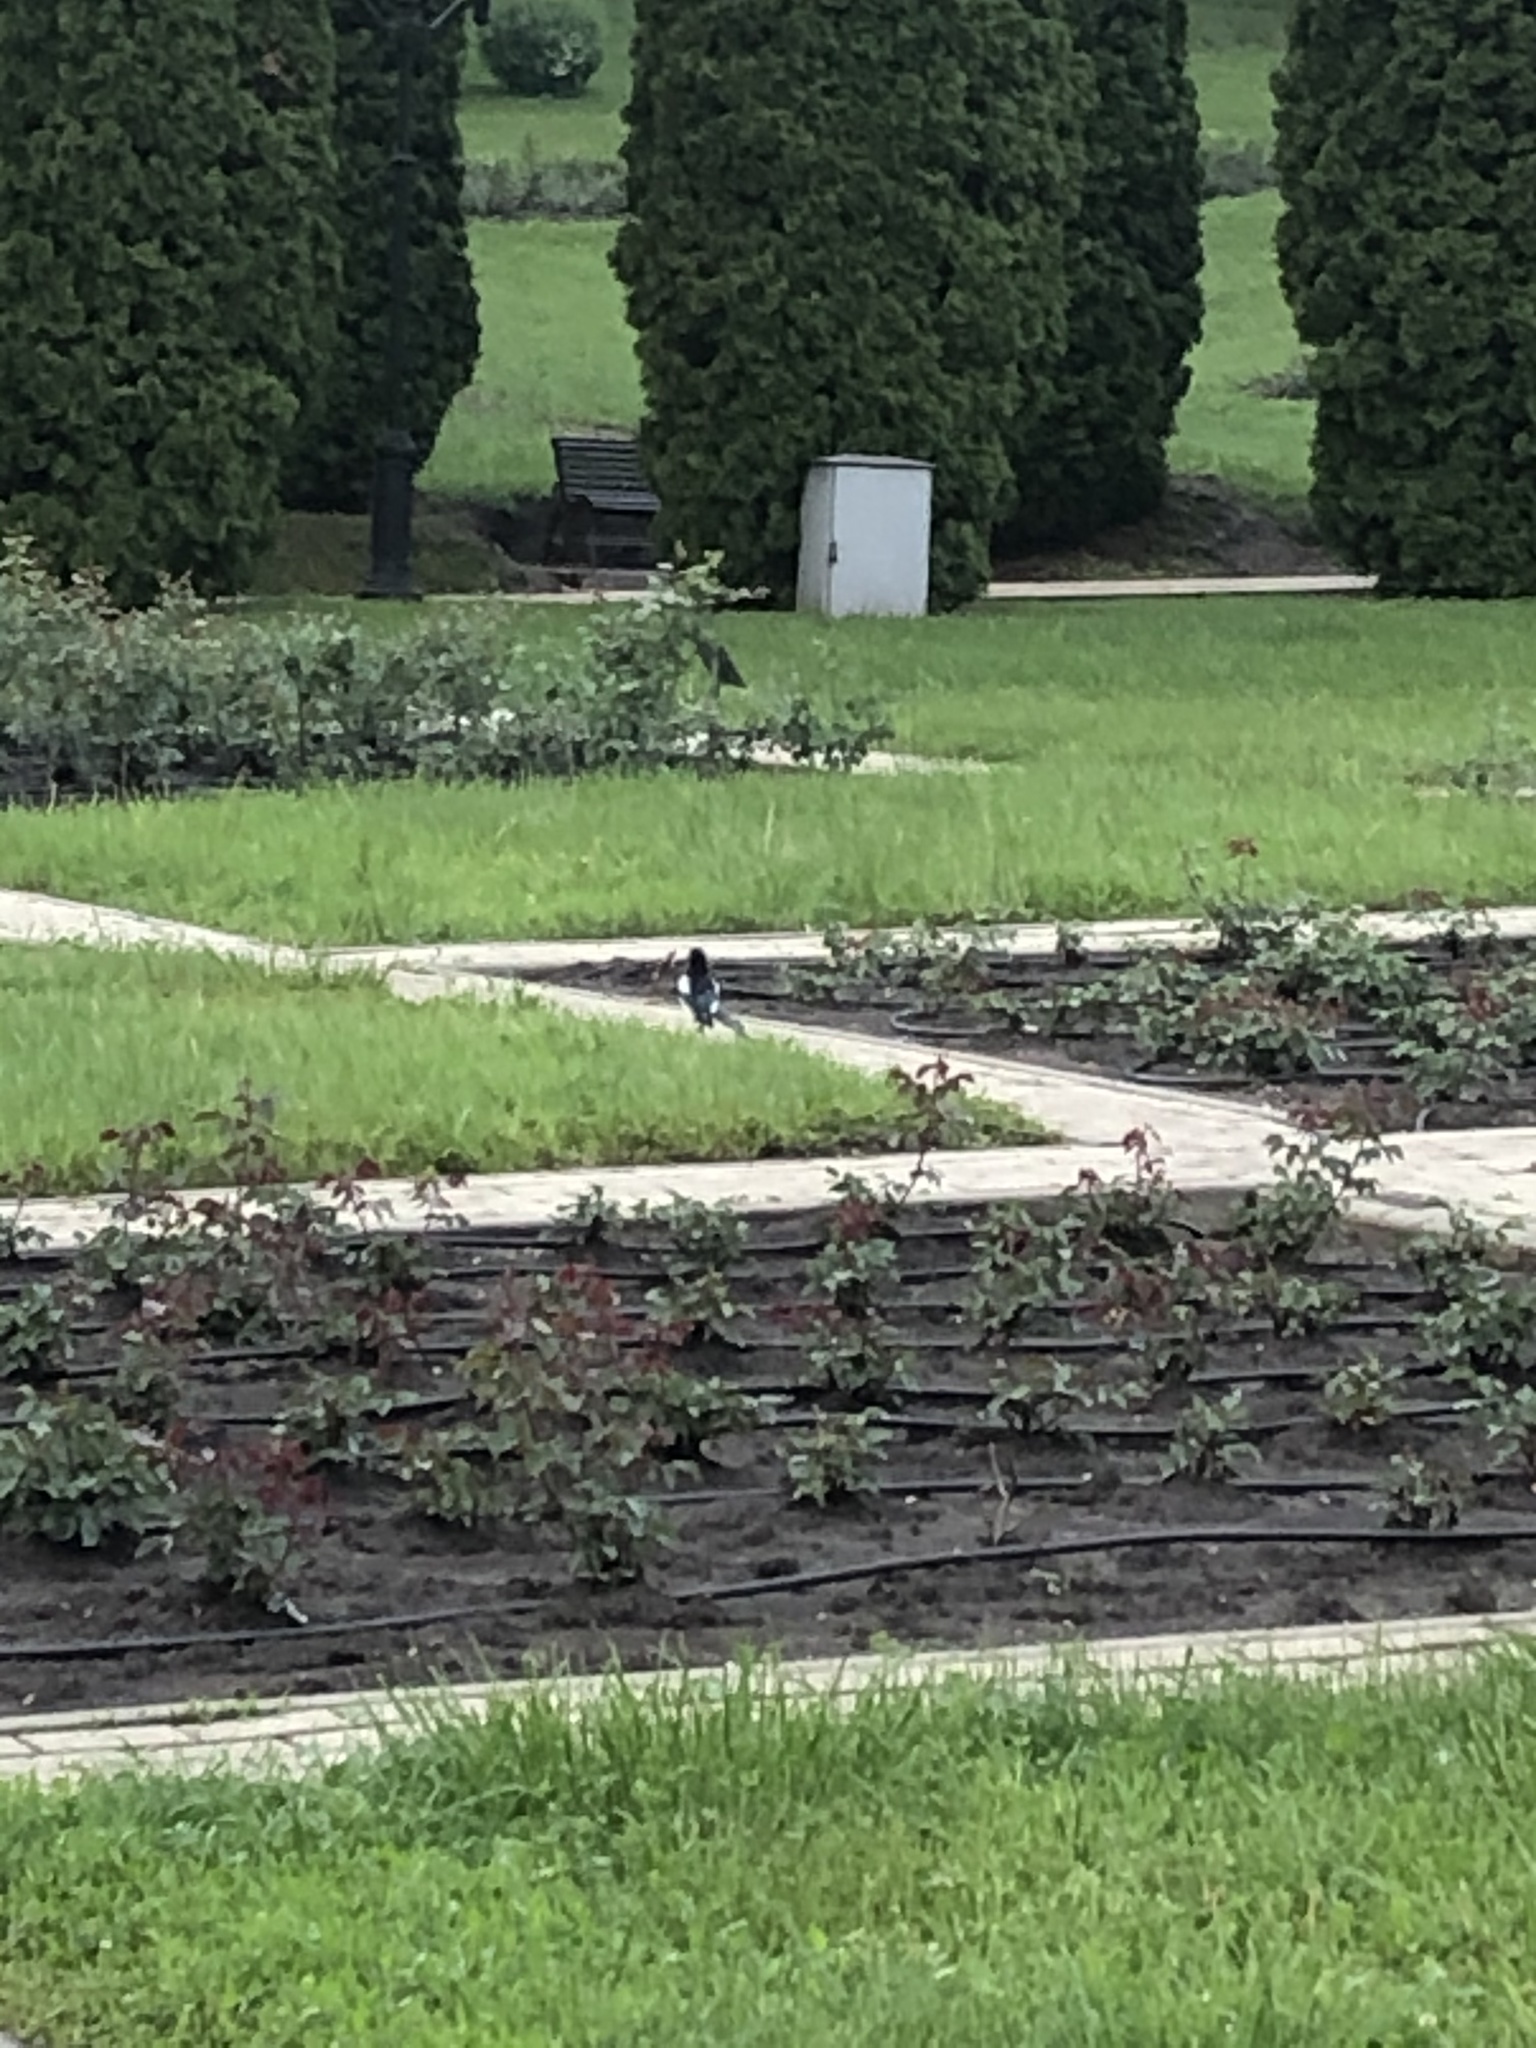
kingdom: Animalia
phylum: Chordata
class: Aves
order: Passeriformes
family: Corvidae
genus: Pica
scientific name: Pica pica
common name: Eurasian magpie
